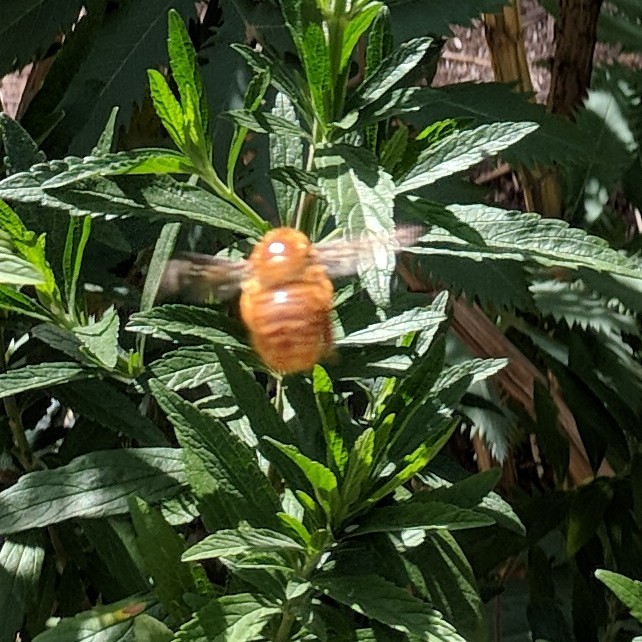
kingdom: Animalia
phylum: Arthropoda
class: Insecta
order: Hymenoptera
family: Apidae
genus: Xylocopa
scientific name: Xylocopa sonorina
